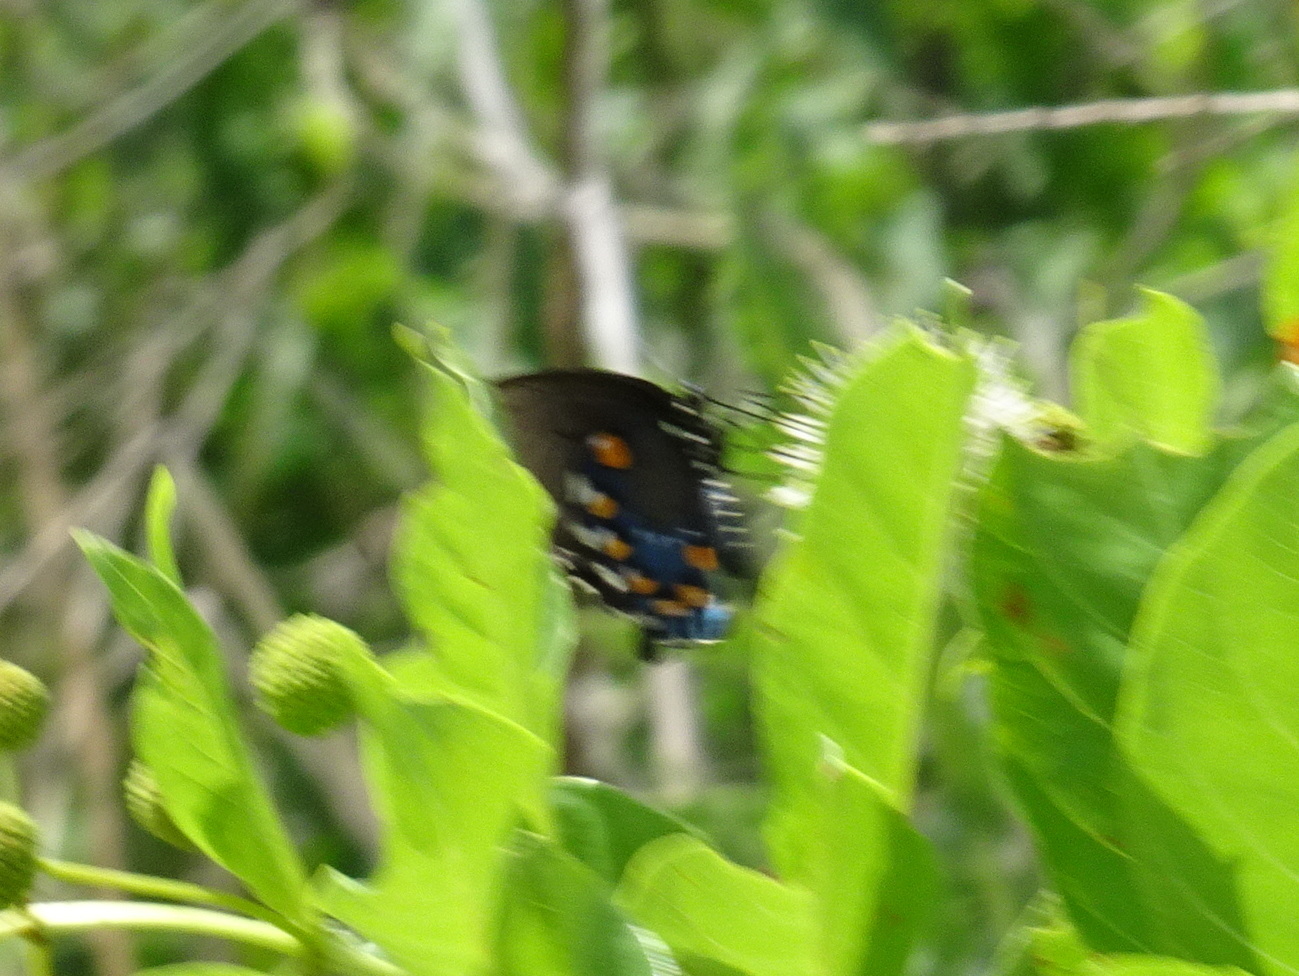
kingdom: Animalia
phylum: Arthropoda
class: Insecta
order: Lepidoptera
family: Papilionidae
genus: Battus
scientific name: Battus philenor
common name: Pipevine swallowtail
